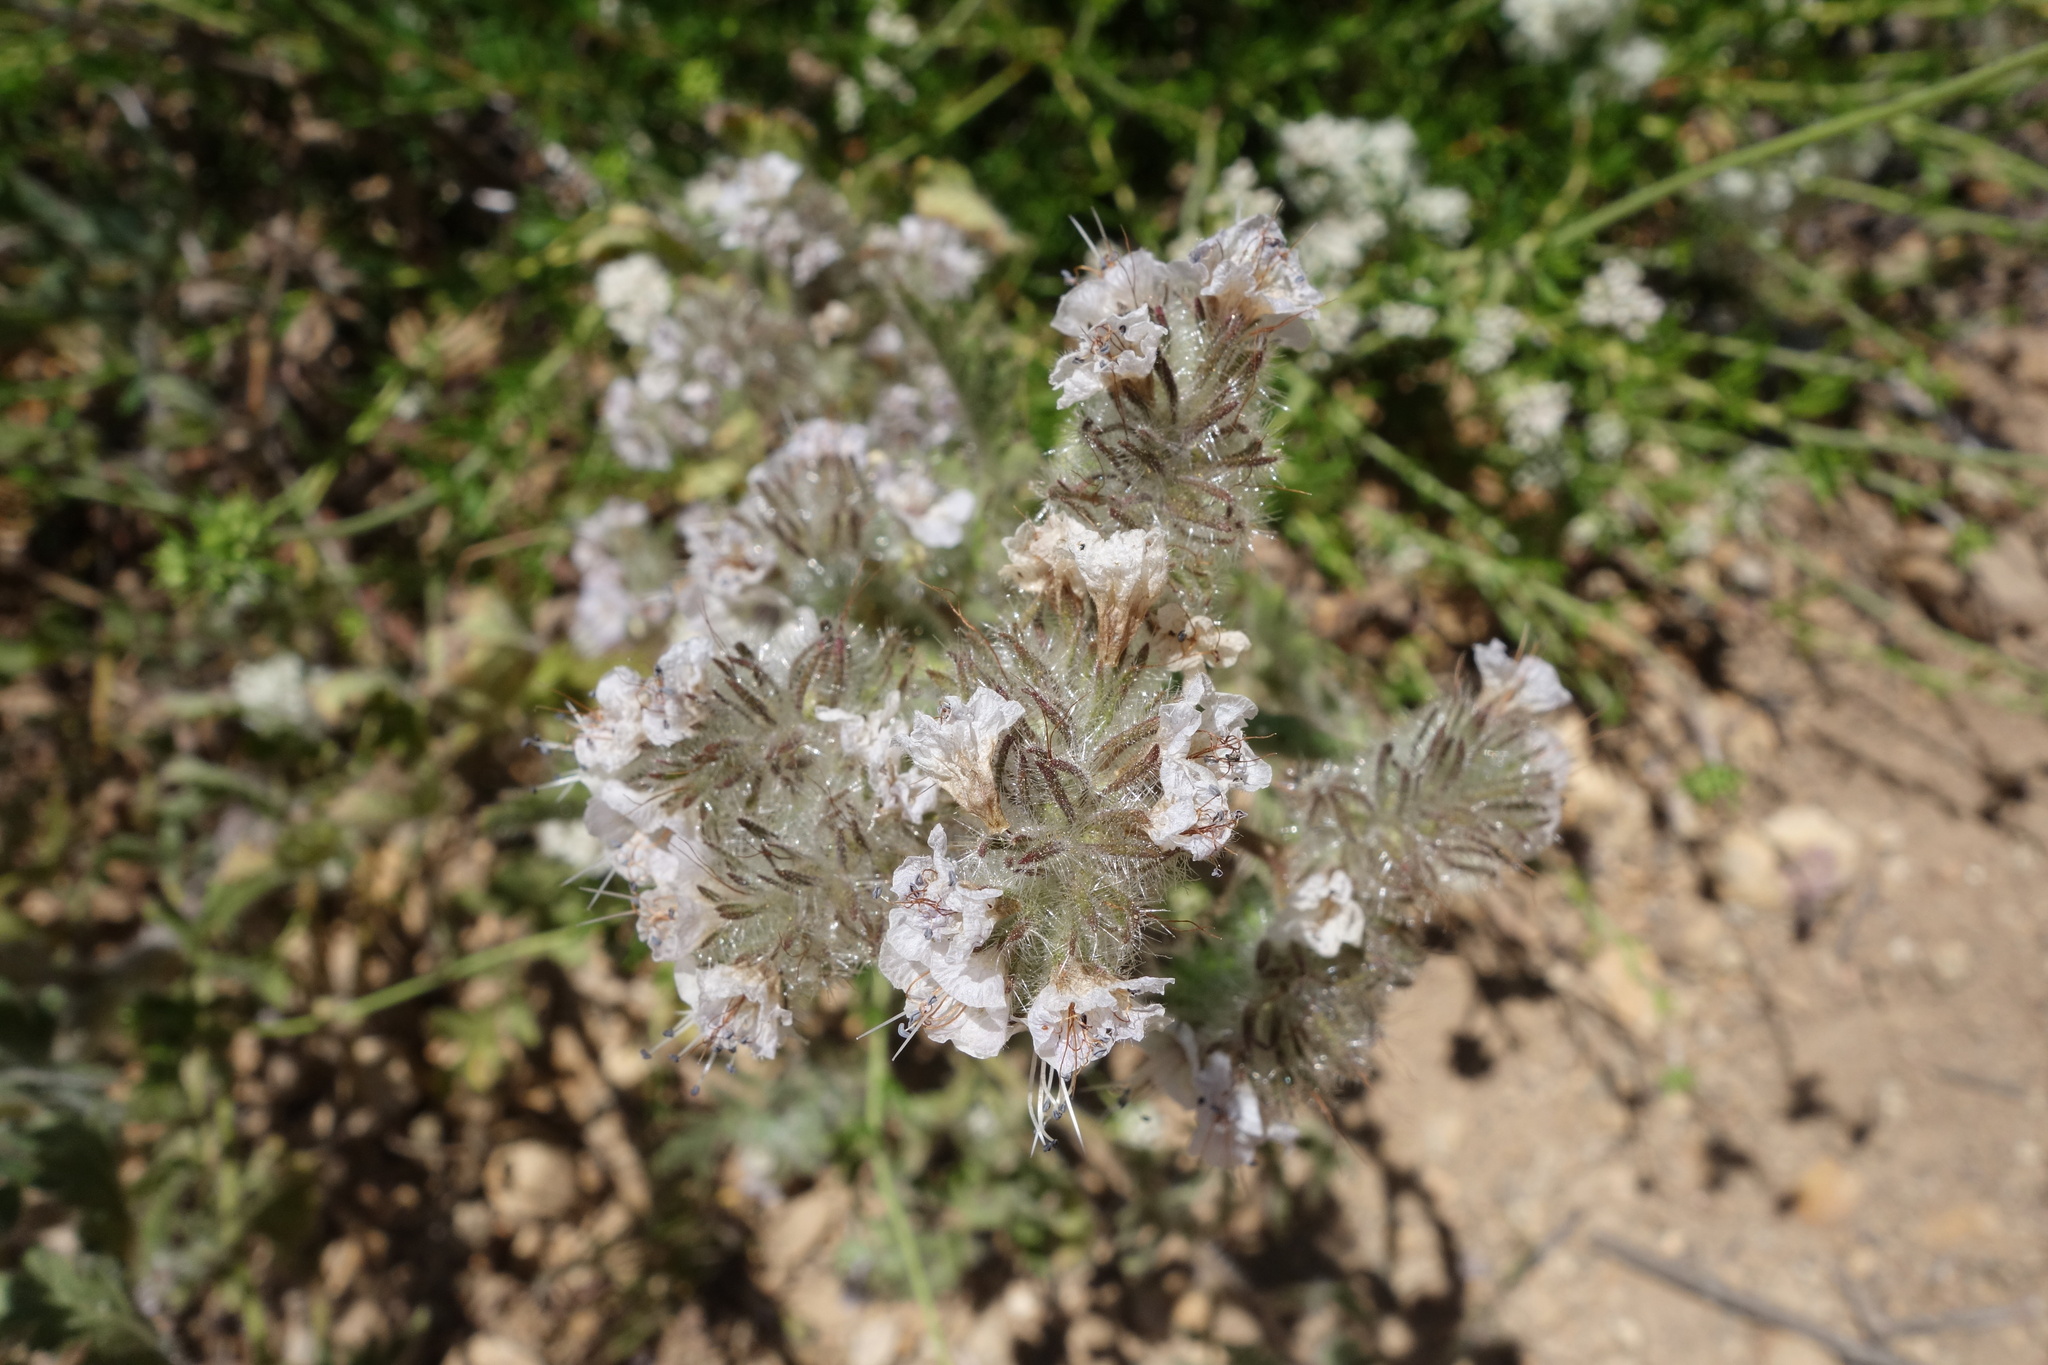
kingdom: Plantae
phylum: Tracheophyta
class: Magnoliopsida
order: Boraginales
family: Hydrophyllaceae
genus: Phacelia
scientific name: Phacelia cicutaria
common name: Caterpillar phacelia
